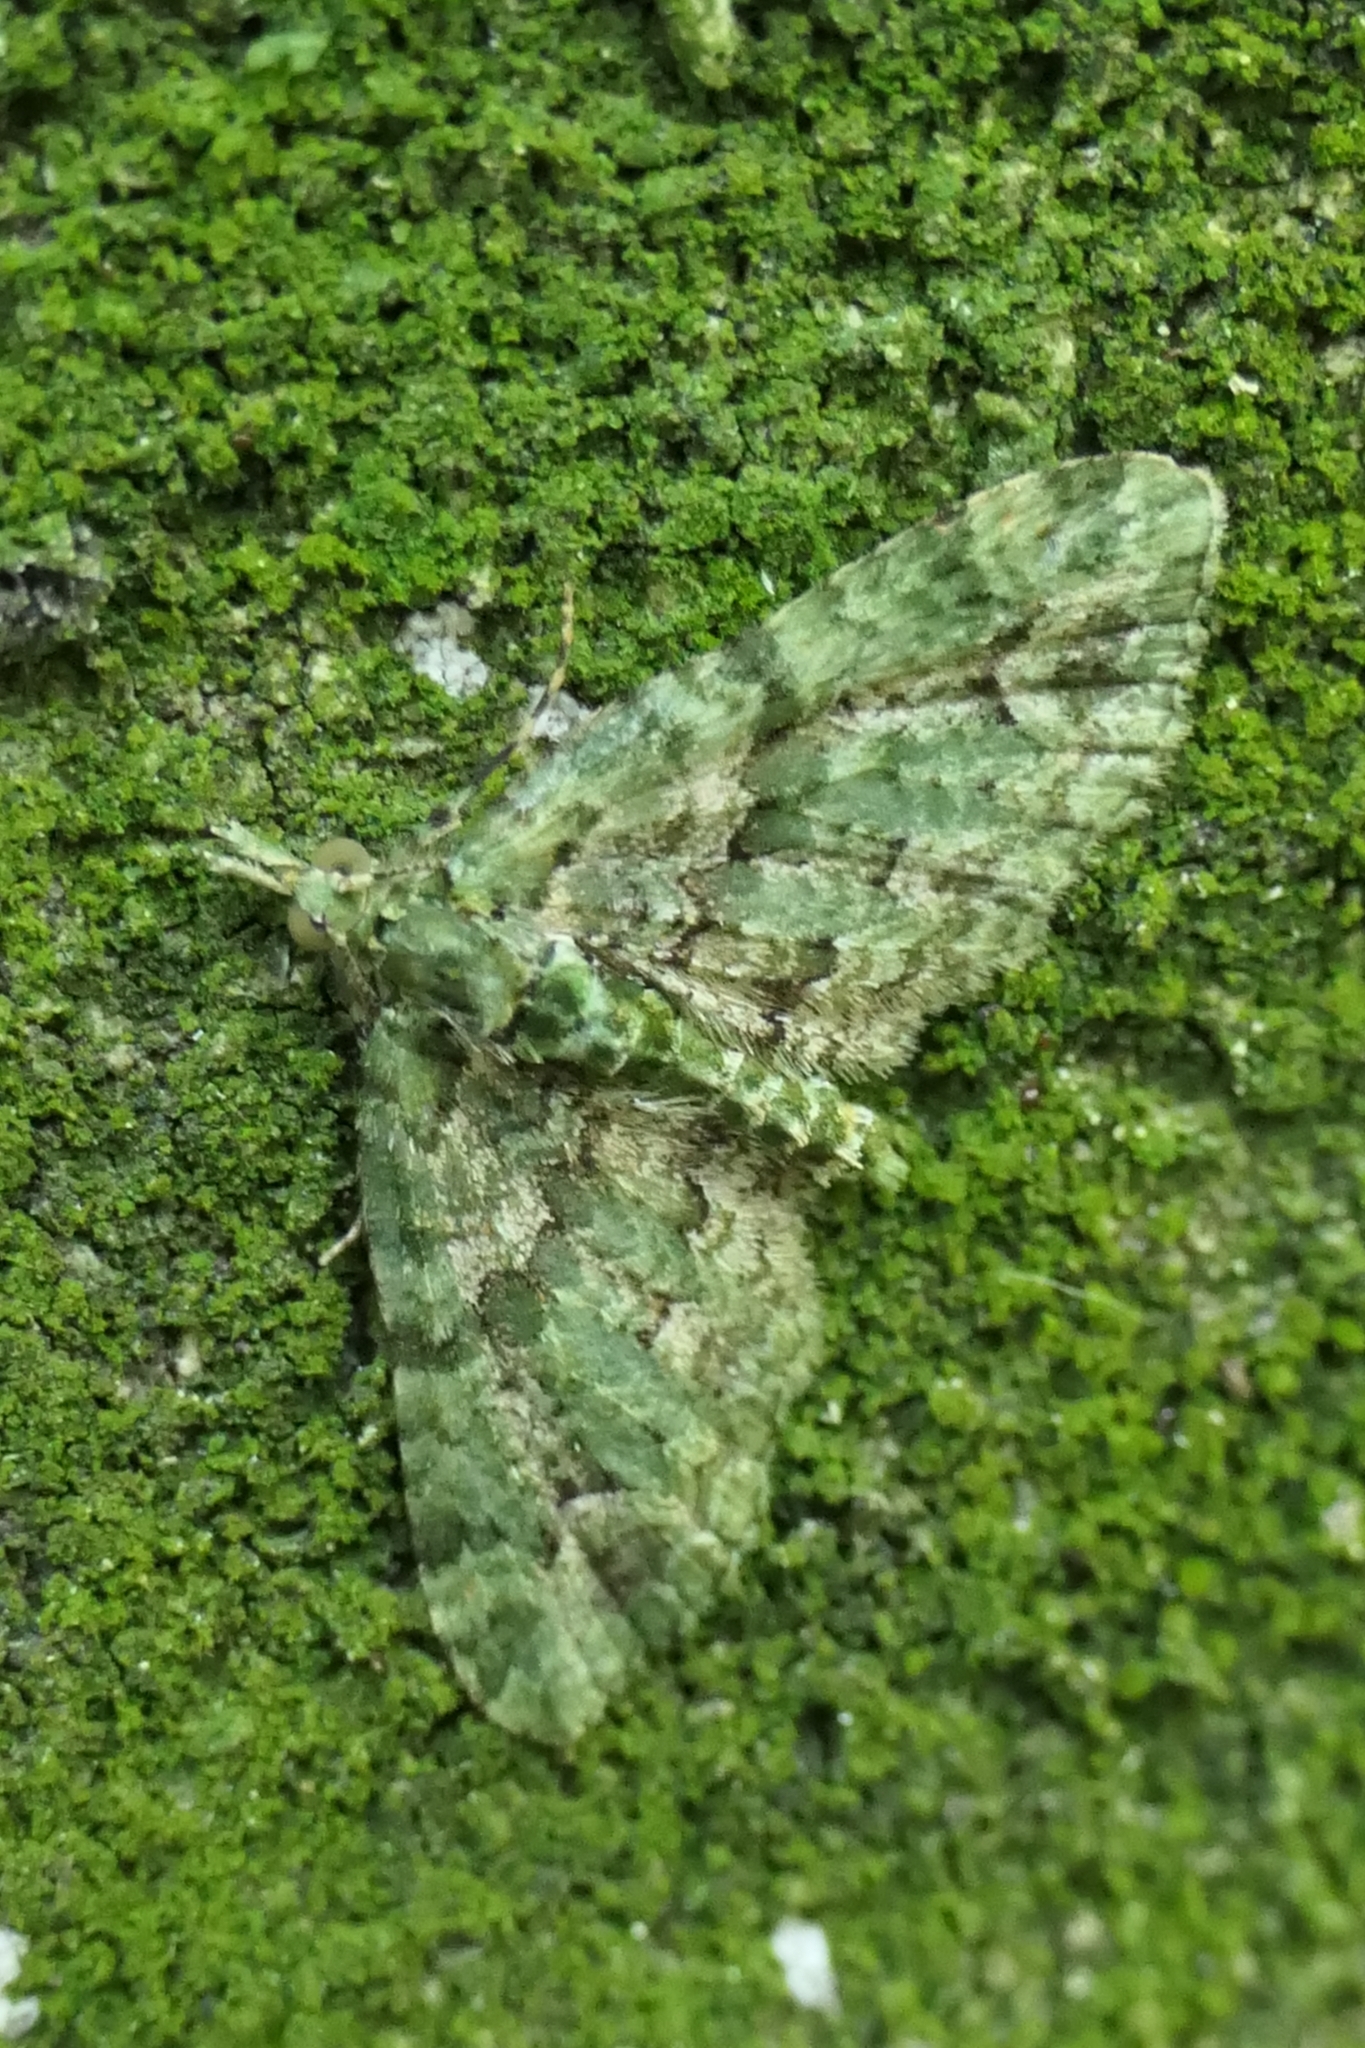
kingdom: Animalia
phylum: Arthropoda
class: Insecta
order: Lepidoptera
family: Geometridae
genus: Pasiphila
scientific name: Pasiphila muscosata
